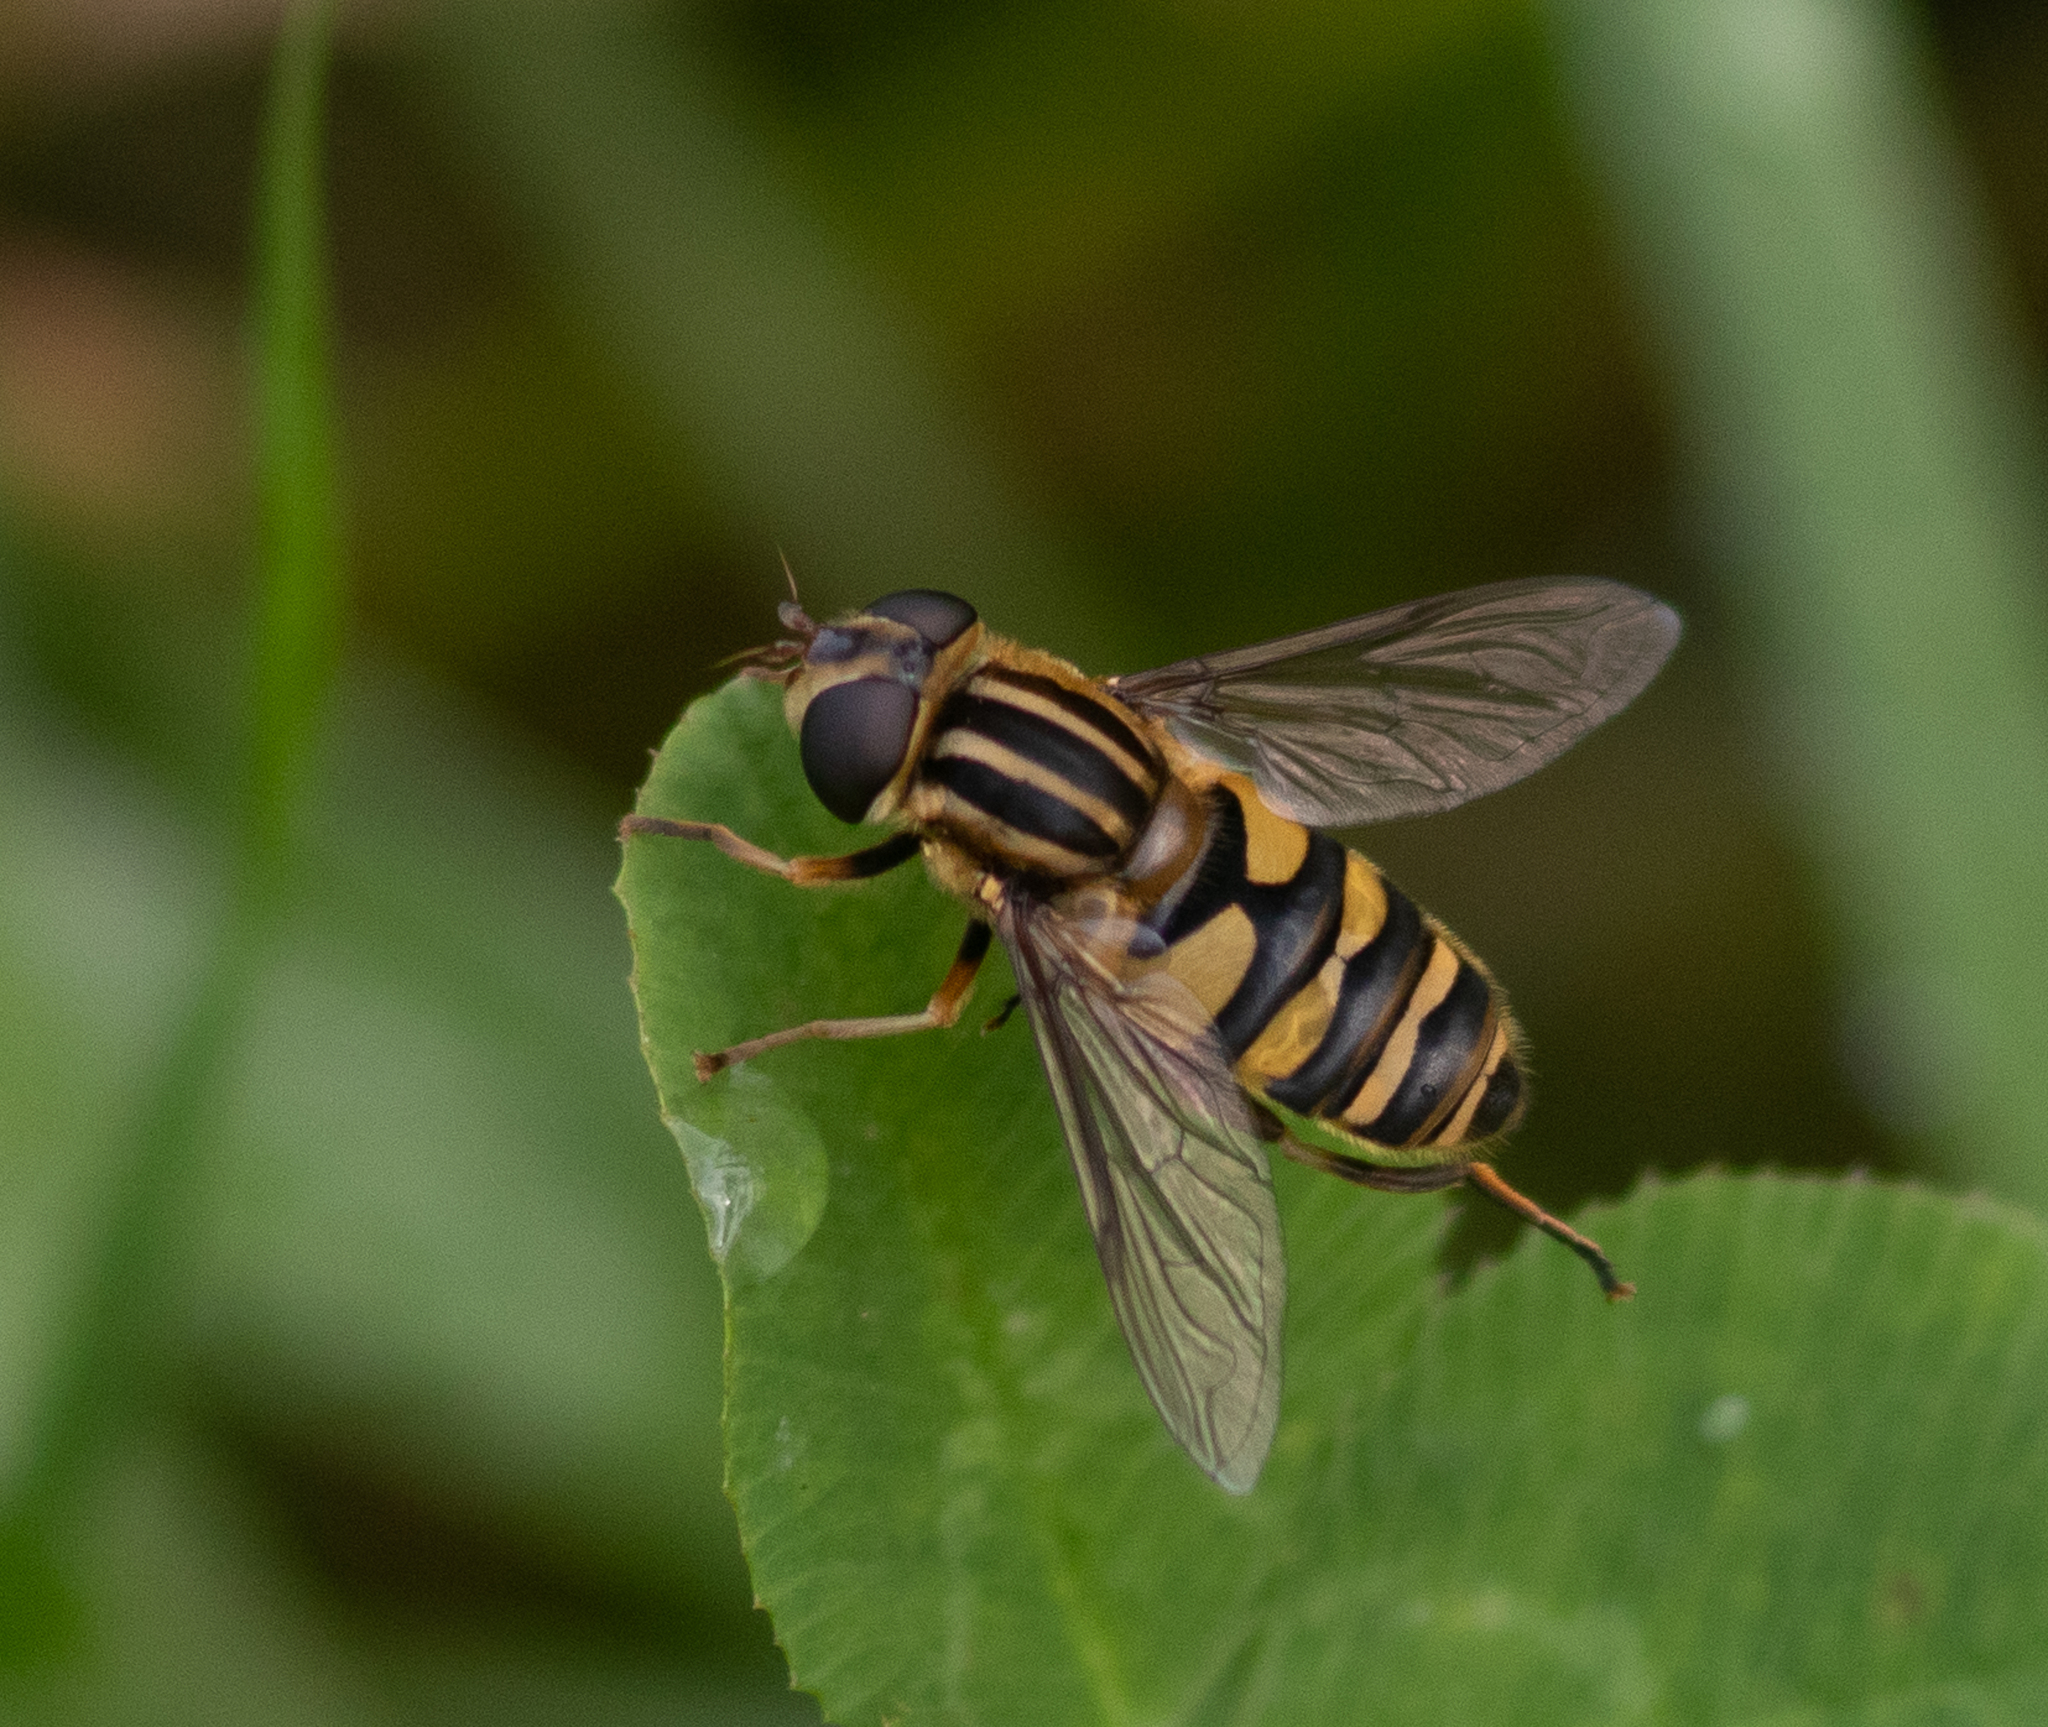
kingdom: Animalia
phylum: Arthropoda
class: Insecta
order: Diptera
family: Syrphidae
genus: Helophilus
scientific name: Helophilus fasciatus
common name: Narrow-headed marsh fly
